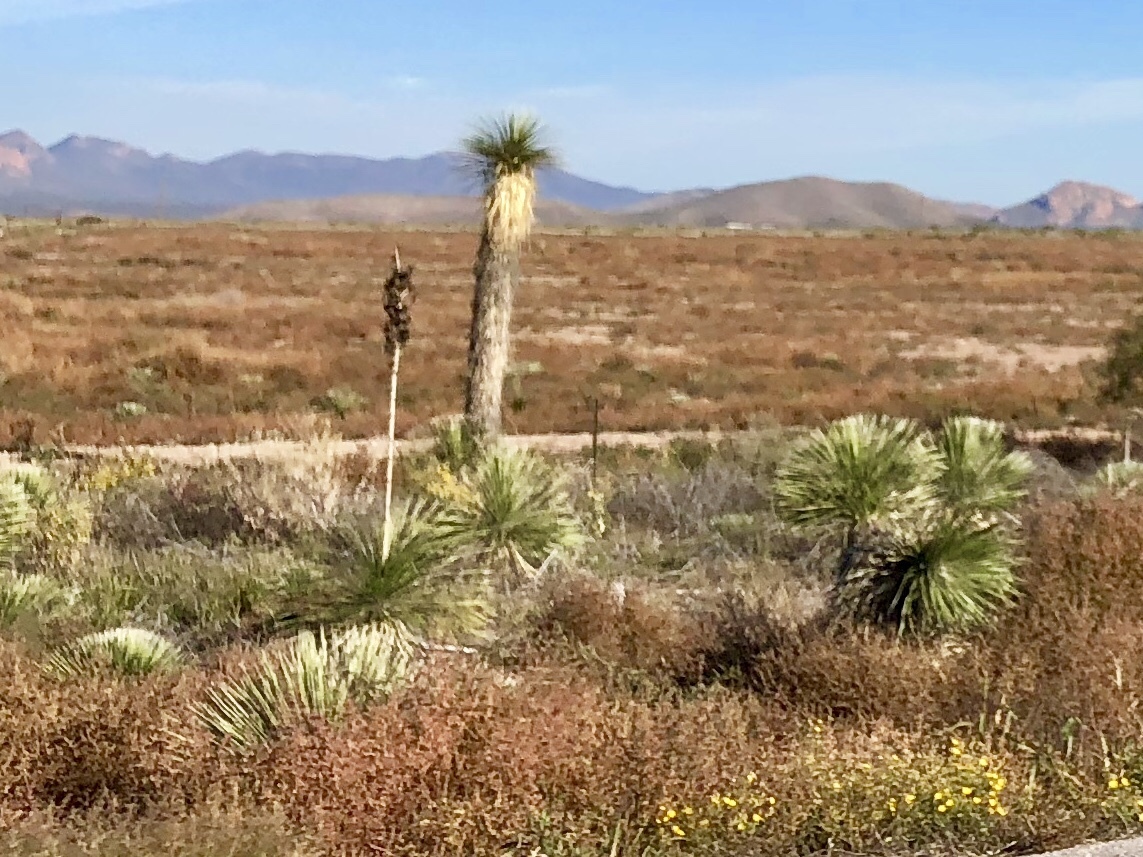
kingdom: Plantae
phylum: Tracheophyta
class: Liliopsida
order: Asparagales
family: Asparagaceae
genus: Yucca
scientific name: Yucca elata
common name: Palmella
